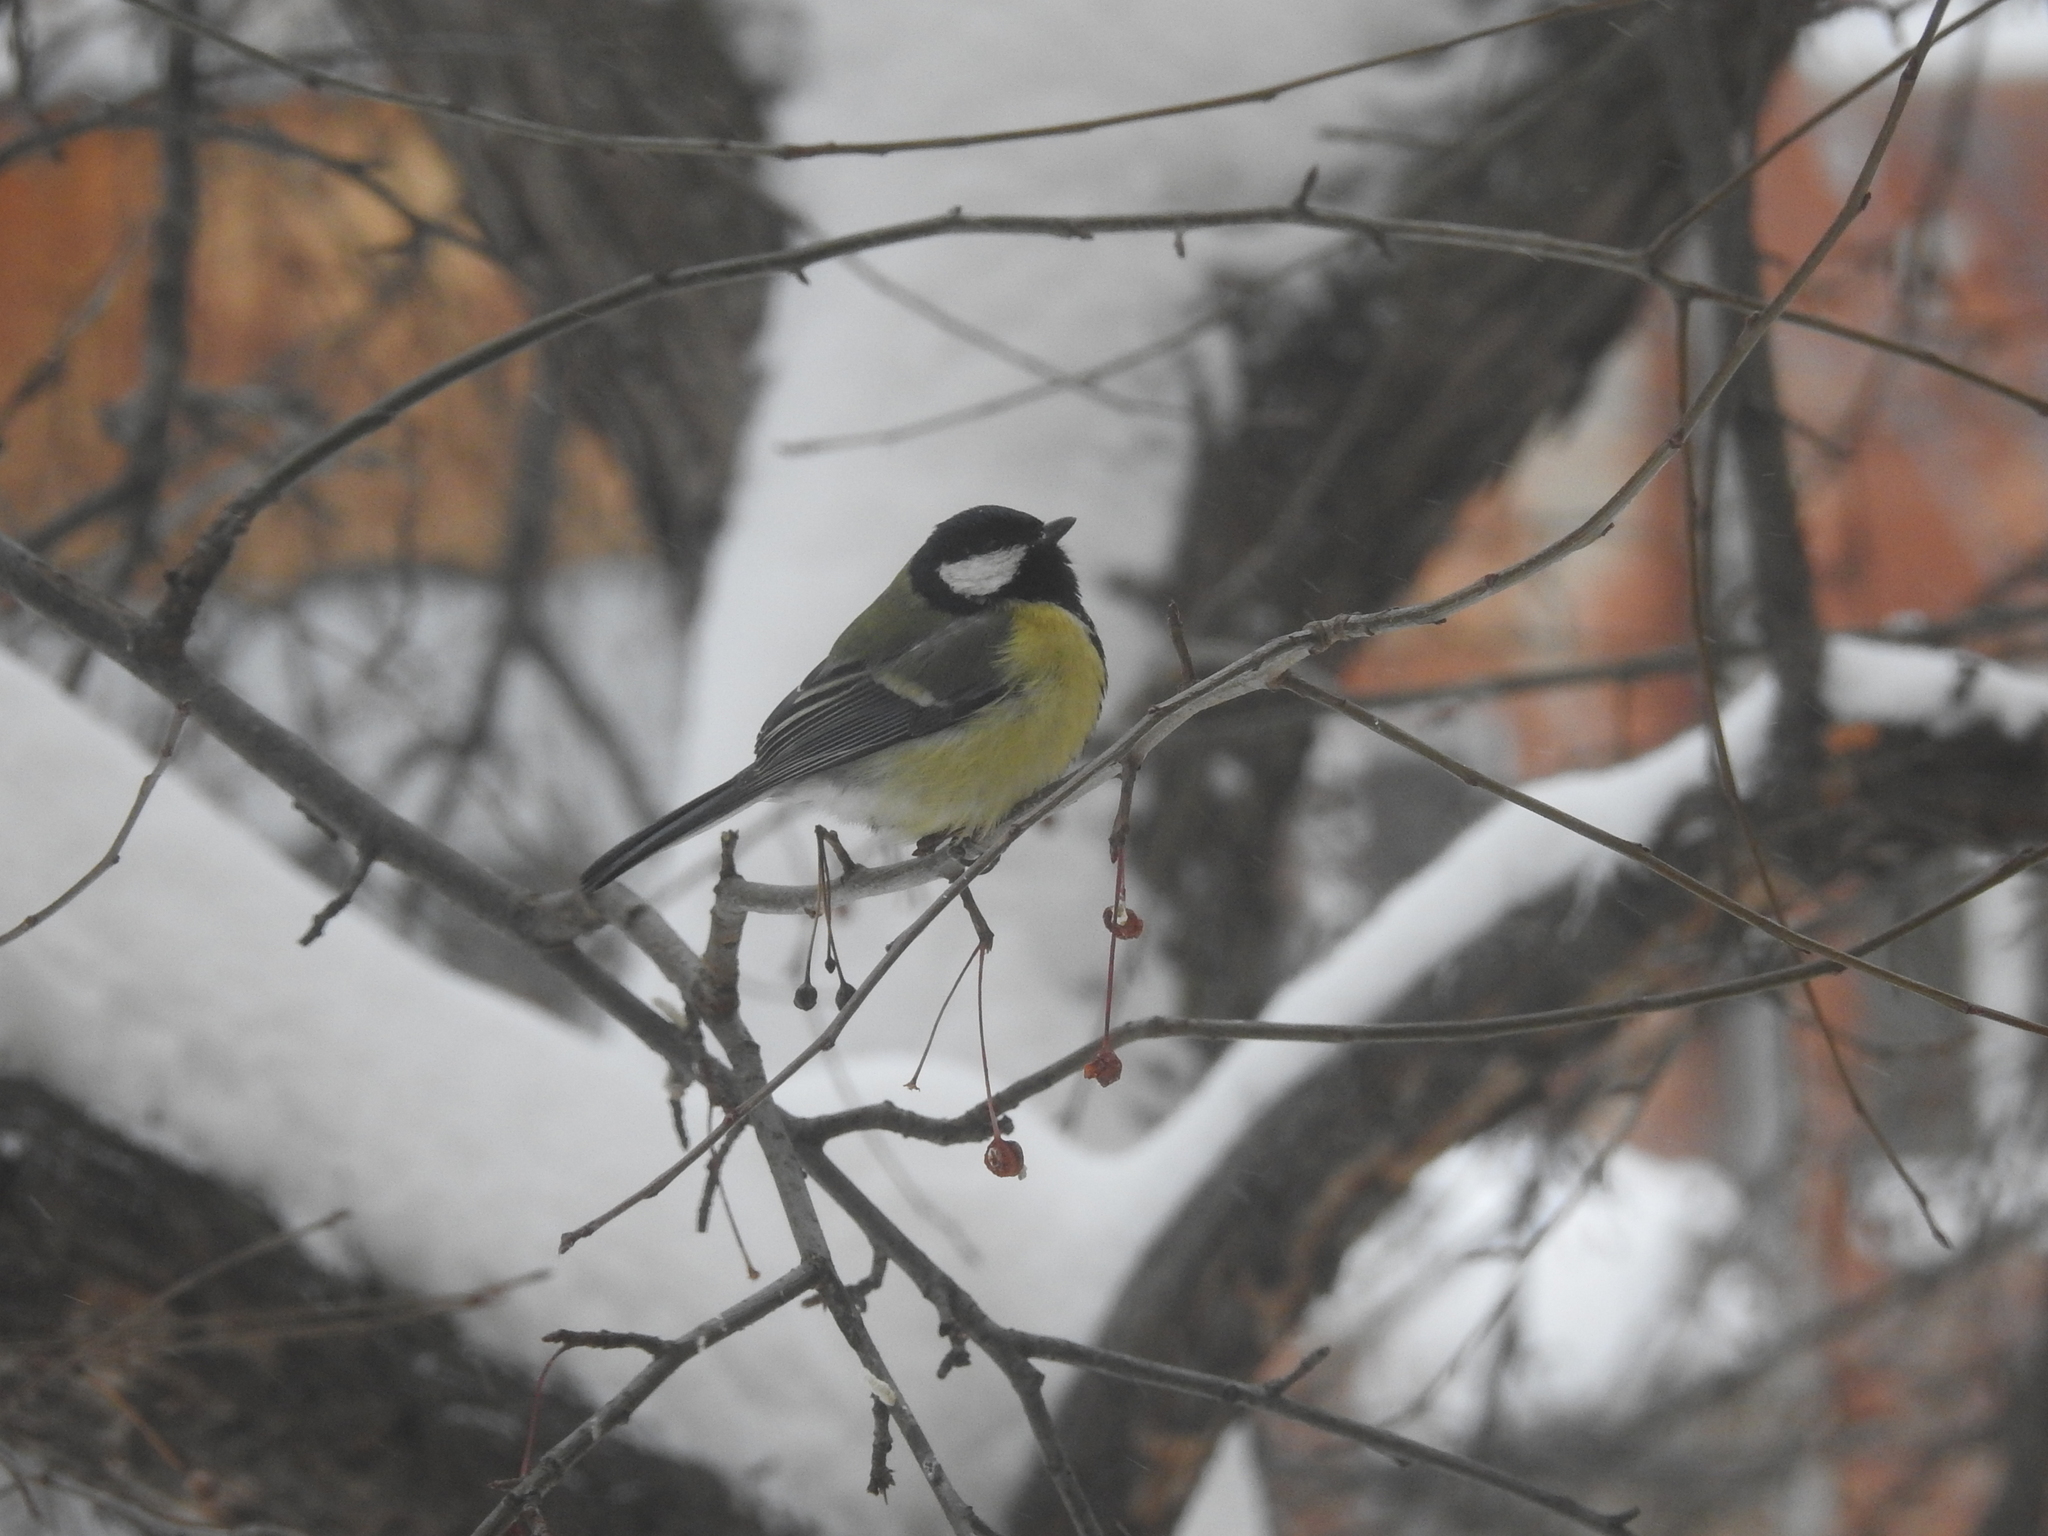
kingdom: Animalia
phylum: Chordata
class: Aves
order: Passeriformes
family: Paridae
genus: Parus
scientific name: Parus major
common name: Great tit
